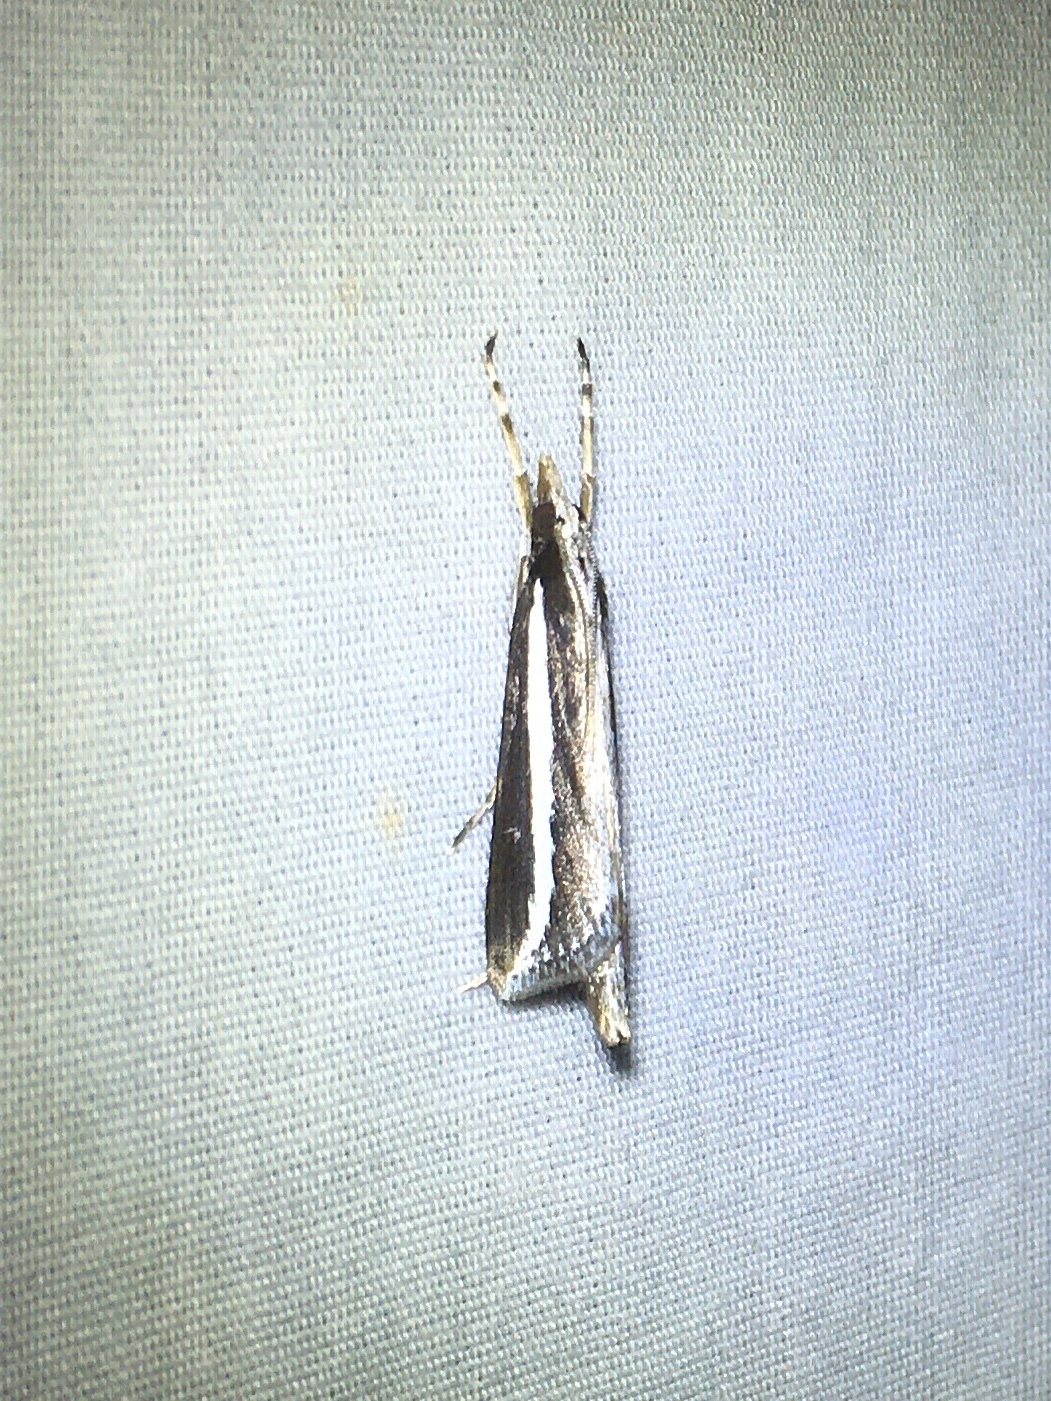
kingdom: Animalia
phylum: Arthropoda
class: Insecta
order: Lepidoptera
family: Crambidae
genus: Carectocultus
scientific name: Carectocultus perstrialis
